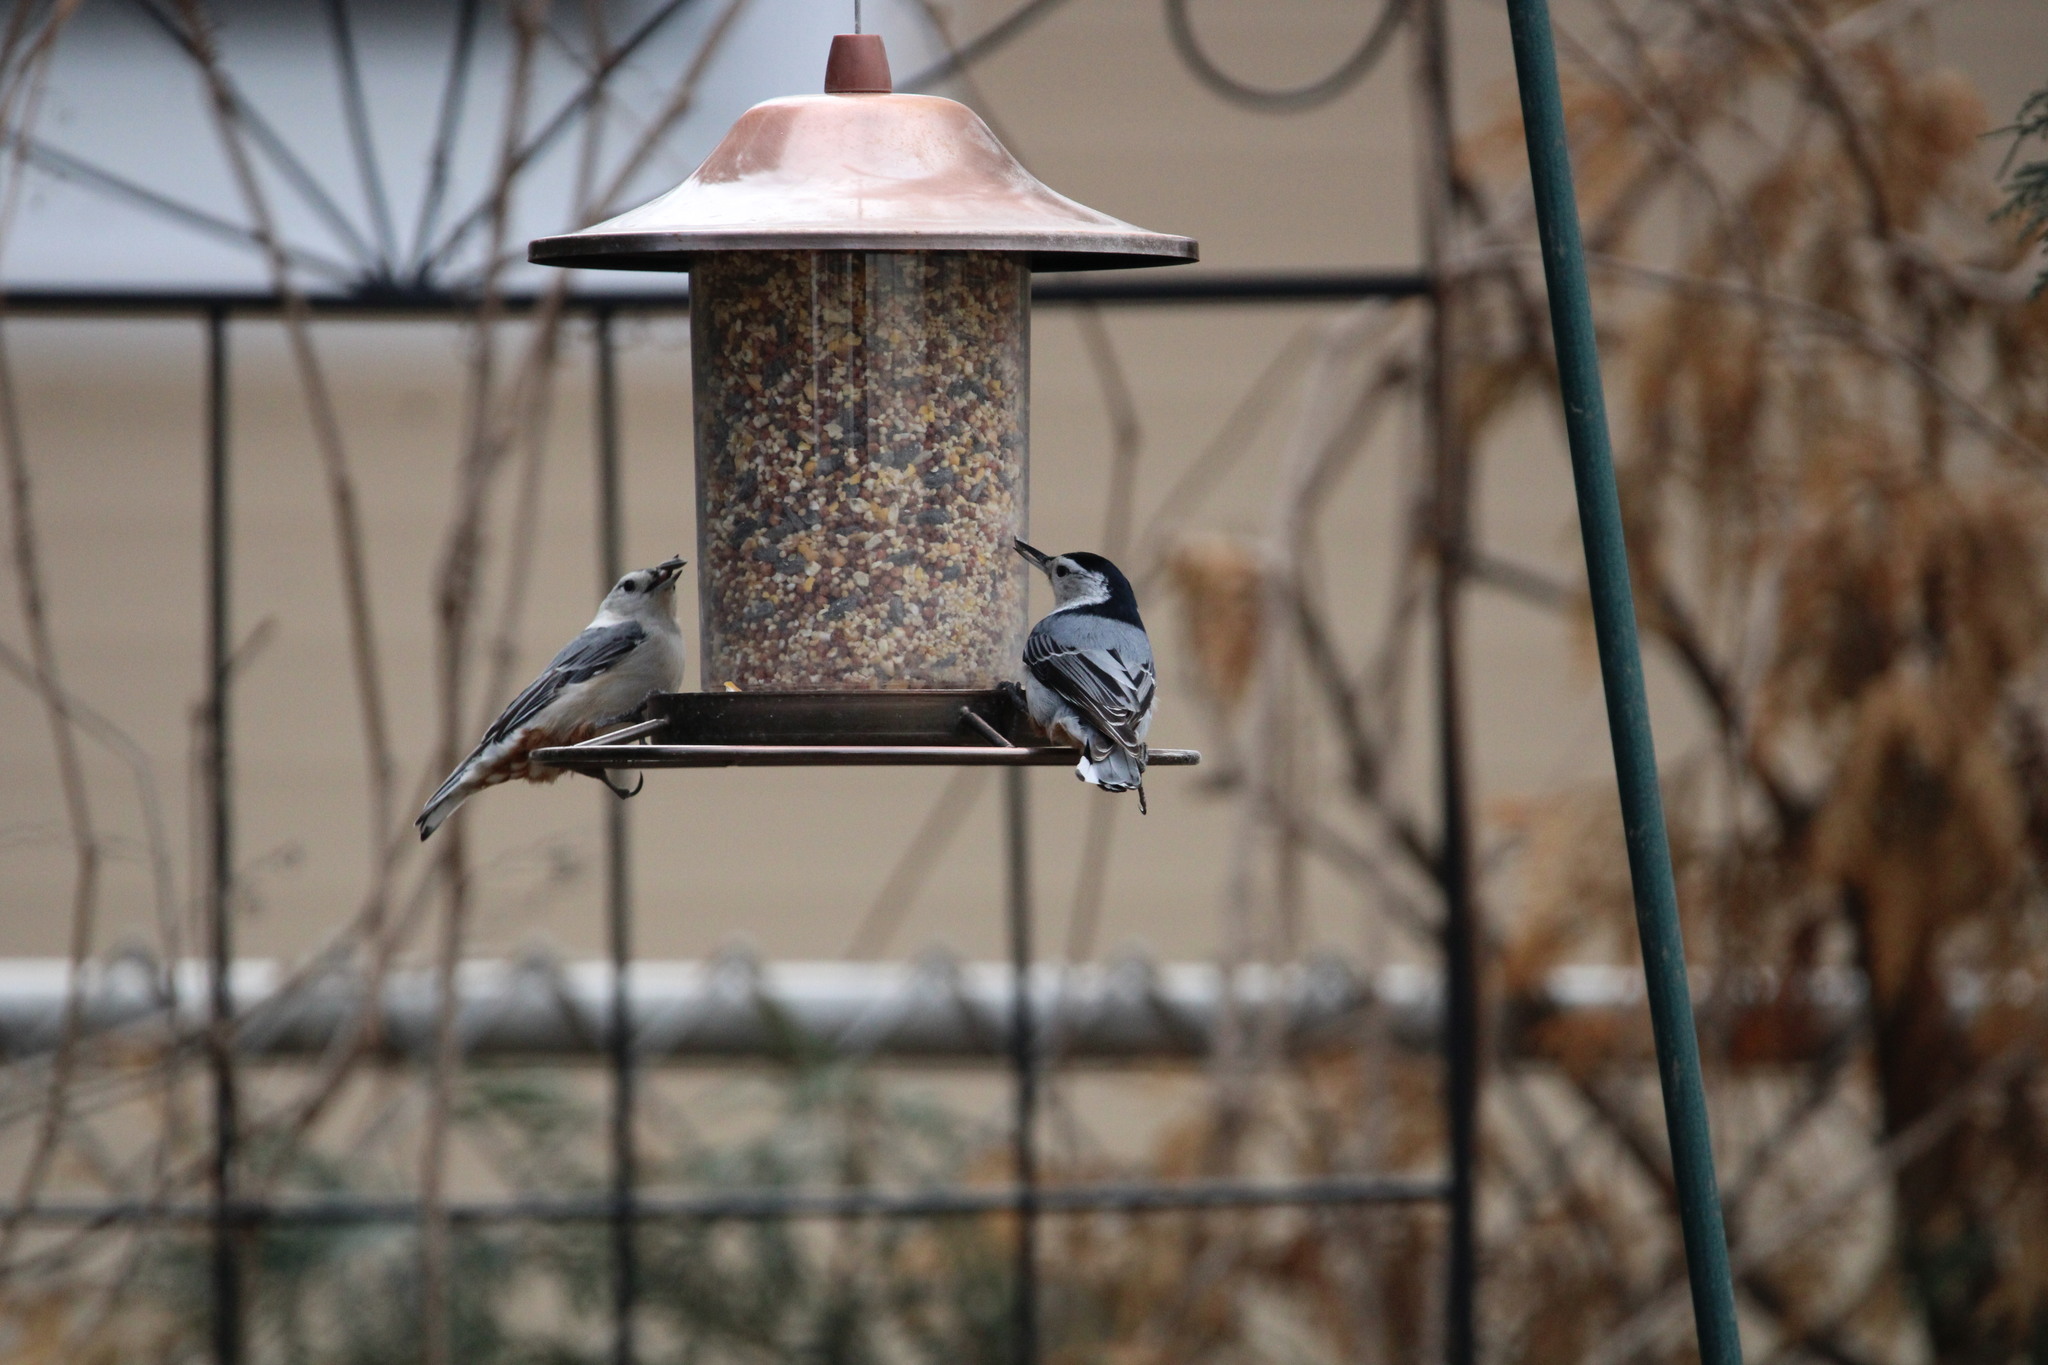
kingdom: Animalia
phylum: Chordata
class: Aves
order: Passeriformes
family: Sittidae
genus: Sitta
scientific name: Sitta carolinensis
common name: White-breasted nuthatch
